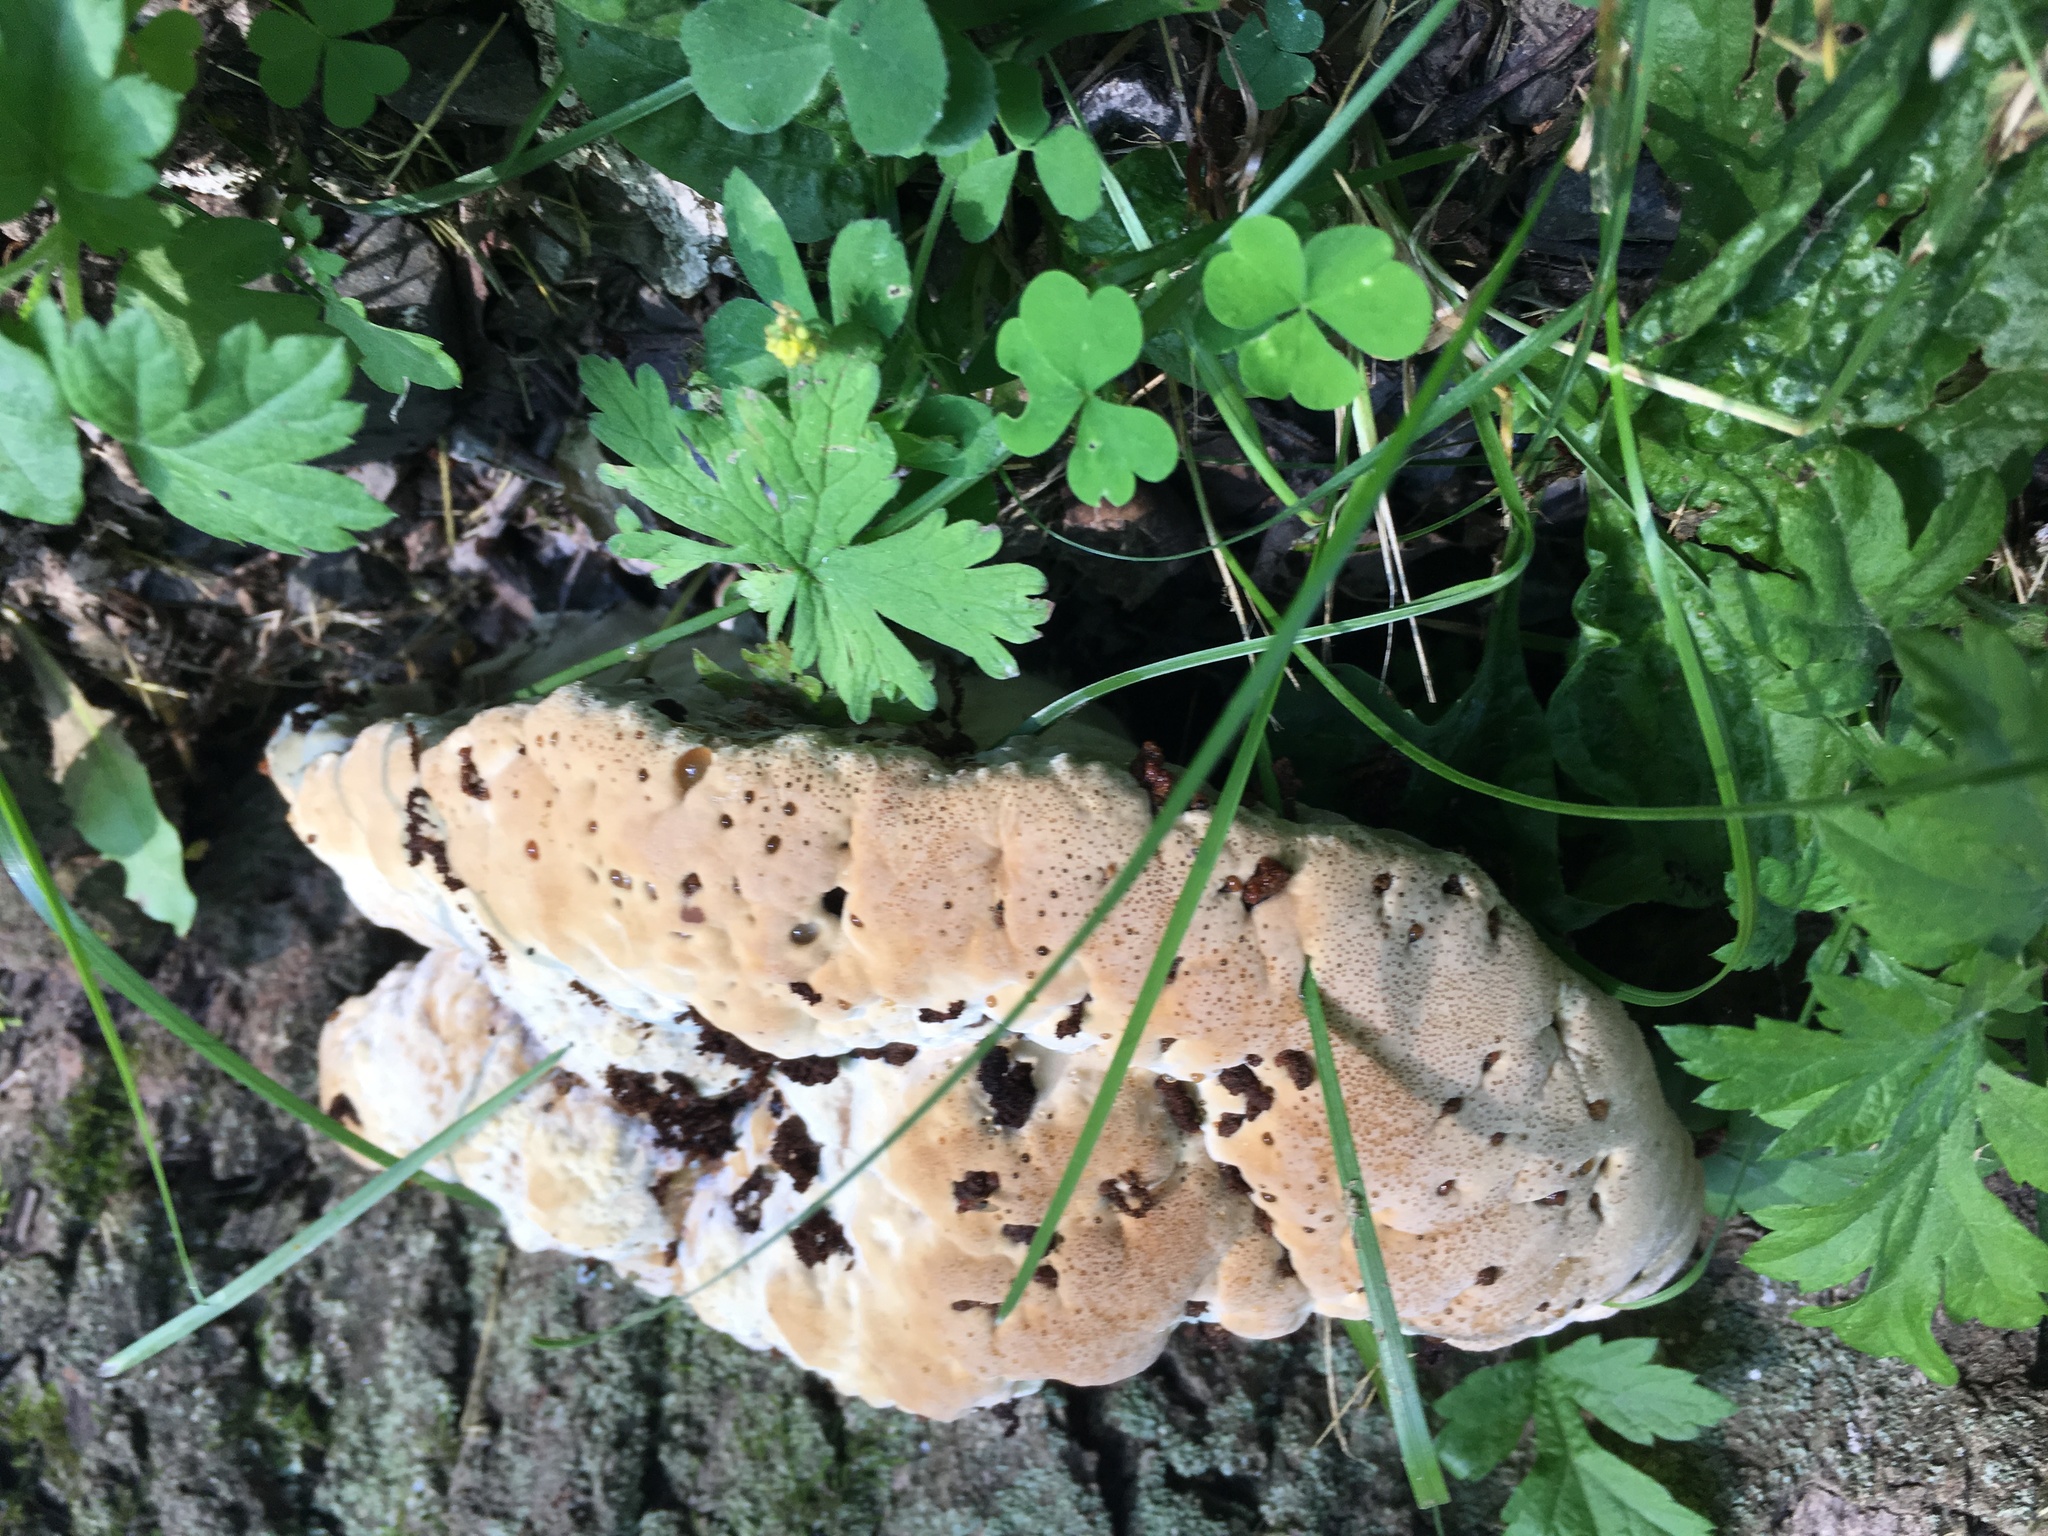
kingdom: Fungi
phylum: Basidiomycota
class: Agaricomycetes
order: Hymenochaetales
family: Hymenochaetaceae
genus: Pseudoinonotus
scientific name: Pseudoinonotus dryadeus
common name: Oak bracket
